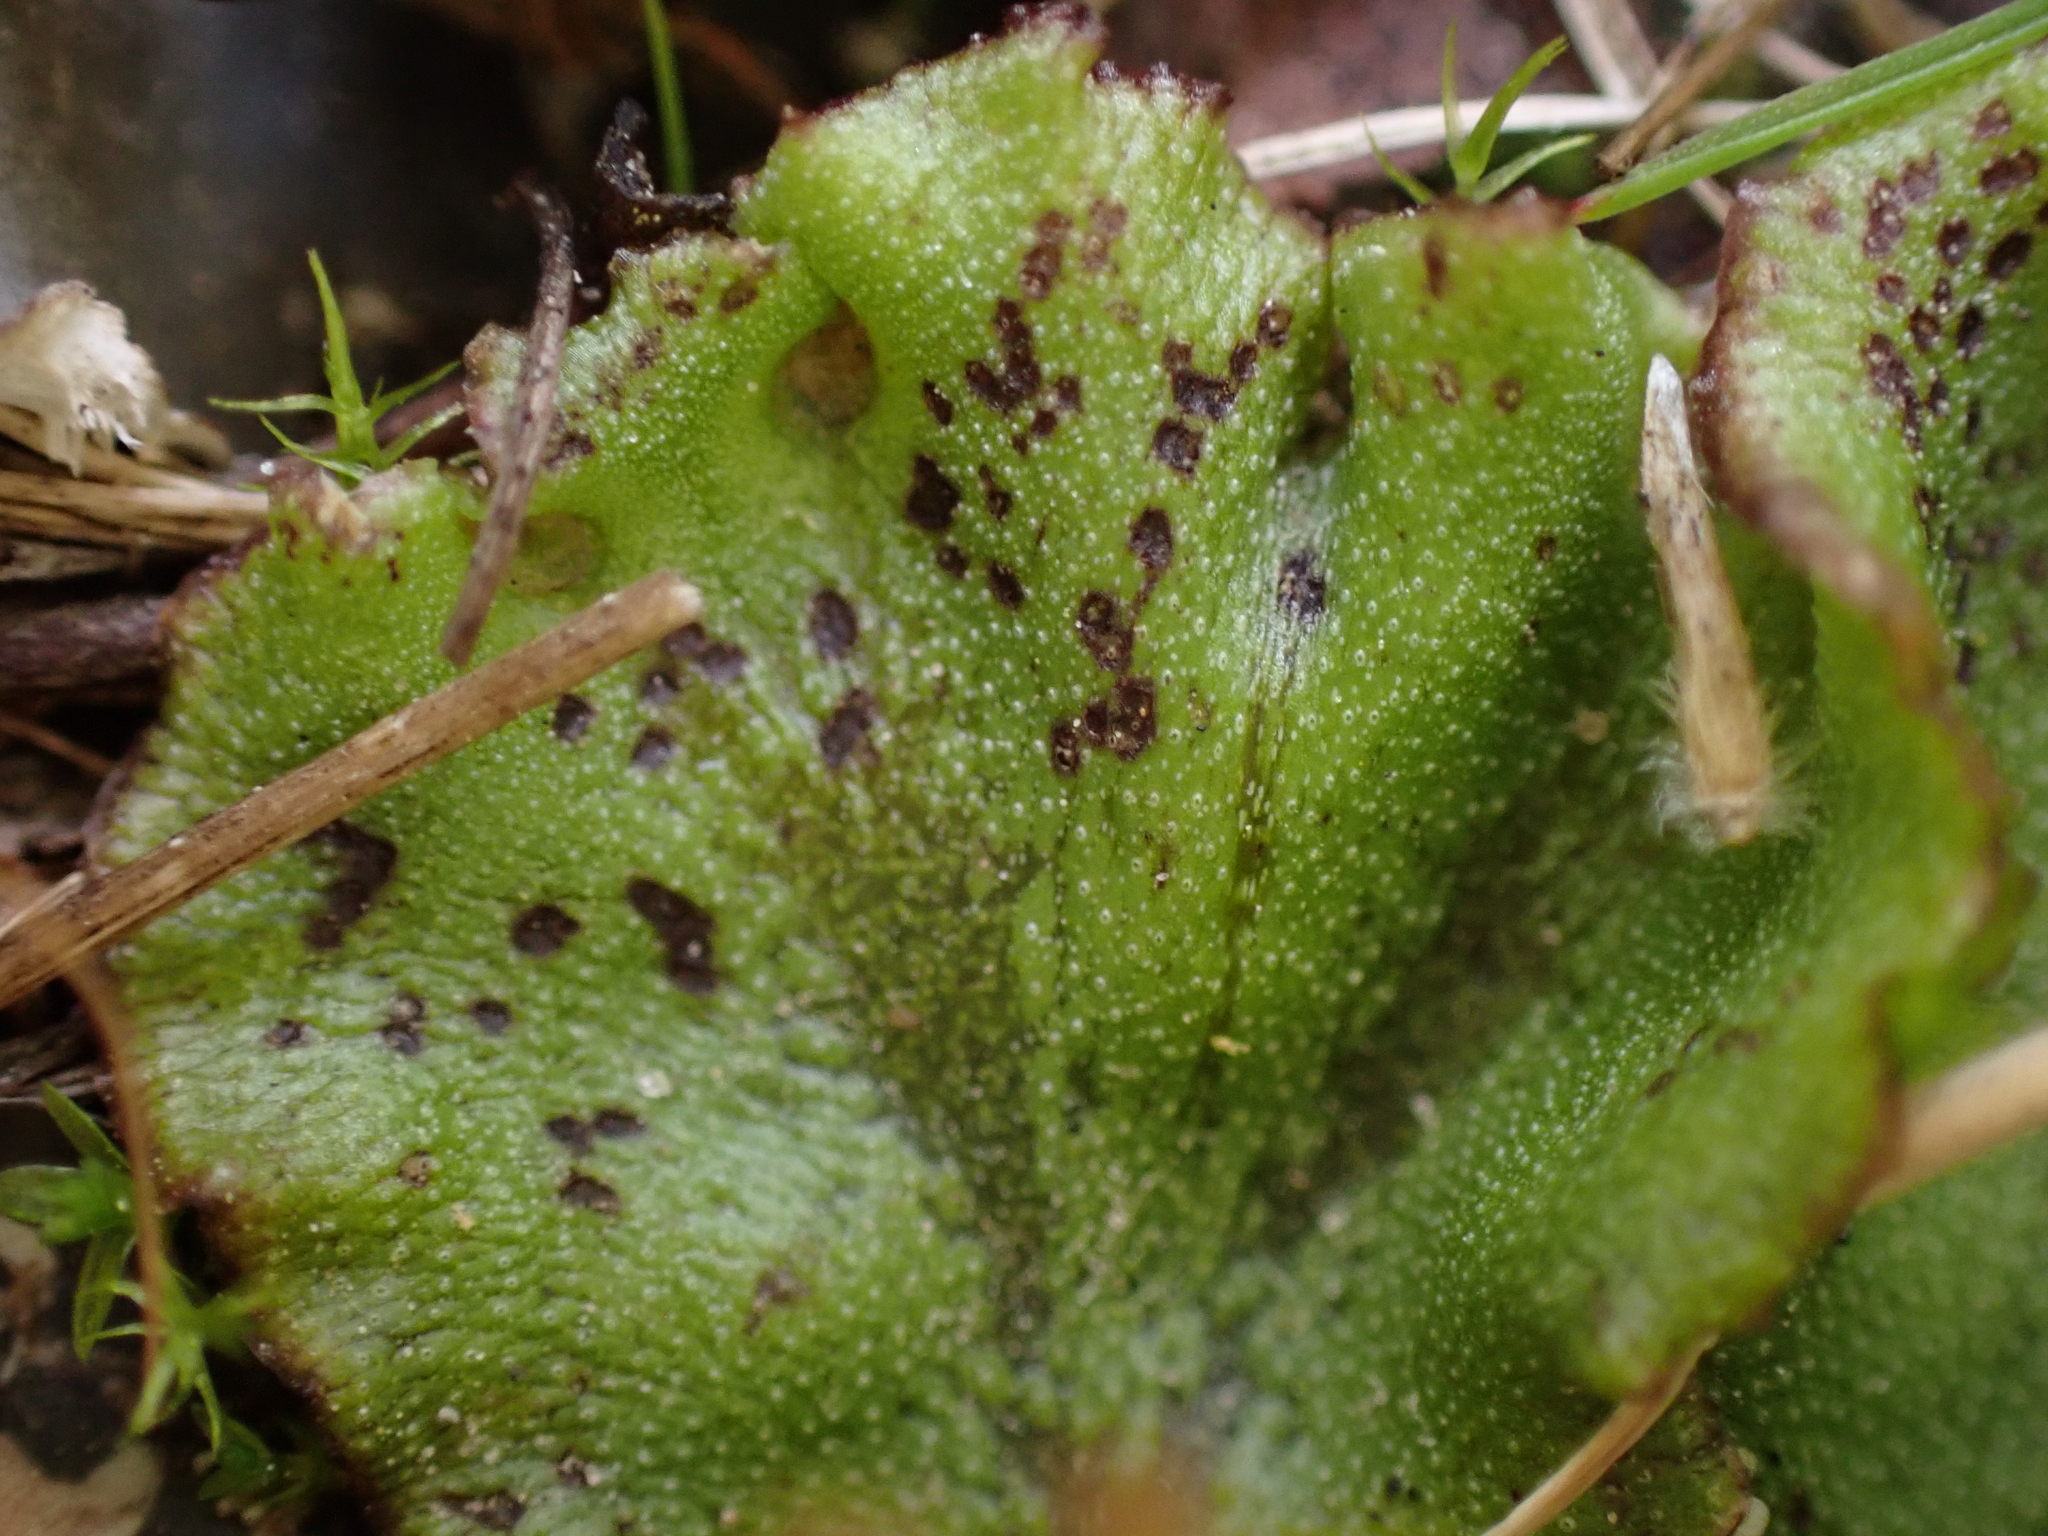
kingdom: Plantae
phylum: Marchantiophyta
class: Marchantiopsida
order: Marchantiales
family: Marchantiaceae
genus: Marchantia
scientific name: Marchantia polymorpha
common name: Common liverwort
